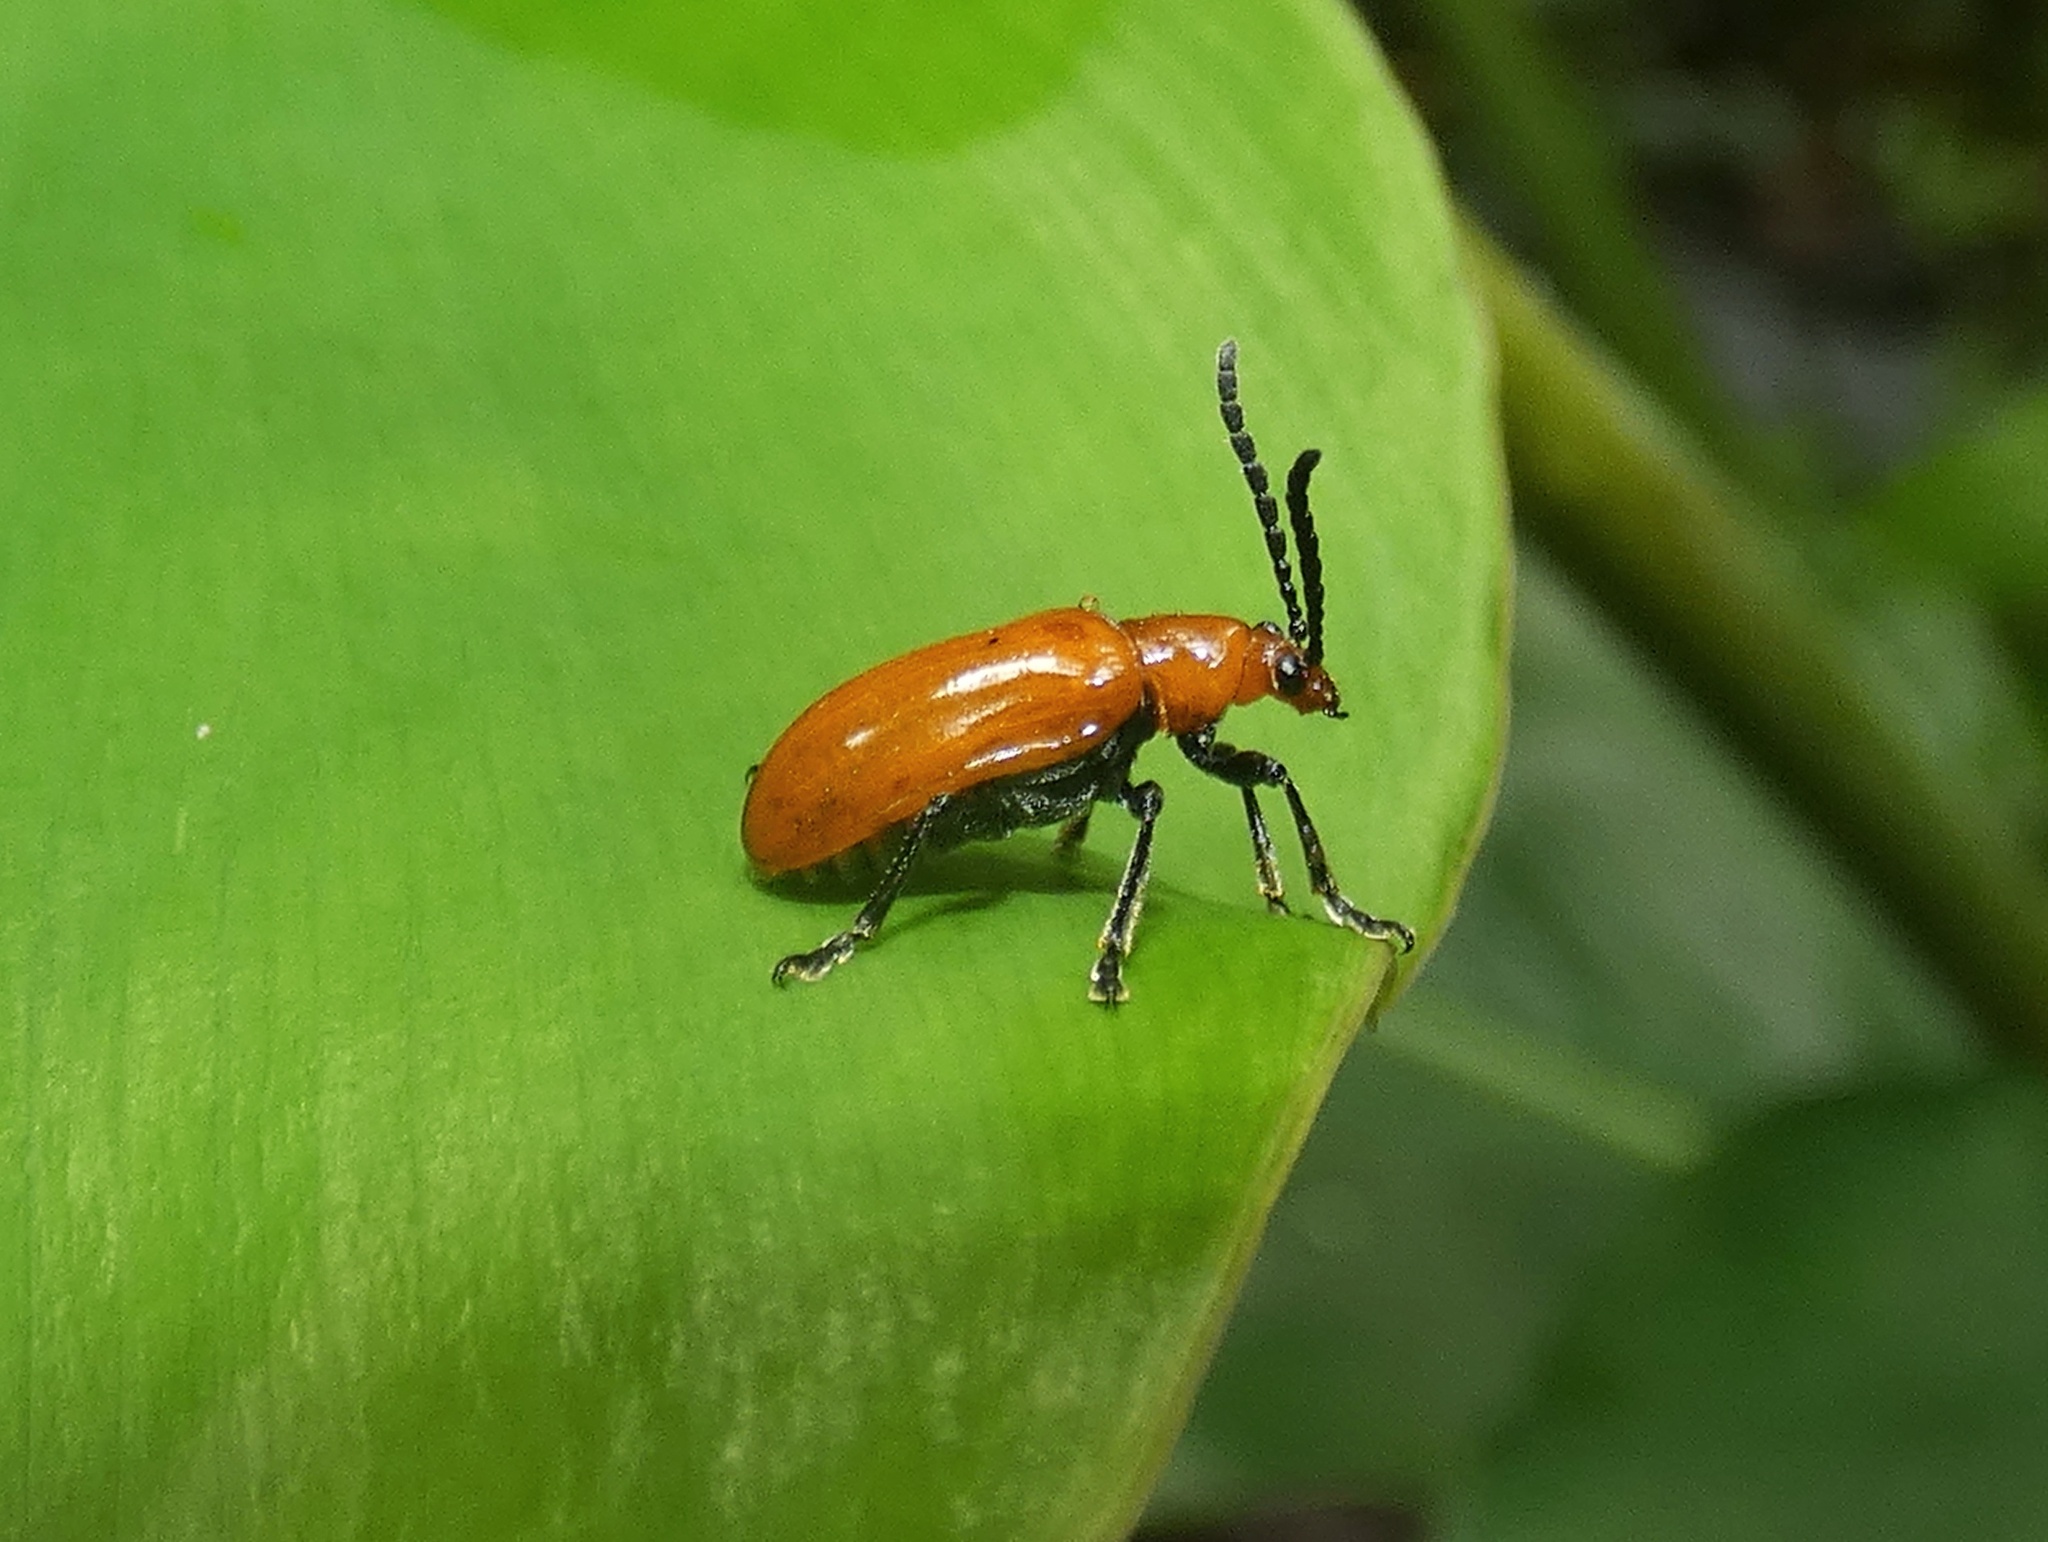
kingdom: Animalia
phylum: Arthropoda
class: Insecta
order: Coleoptera
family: Chrysomelidae
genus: Lilioceris
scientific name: Lilioceris
